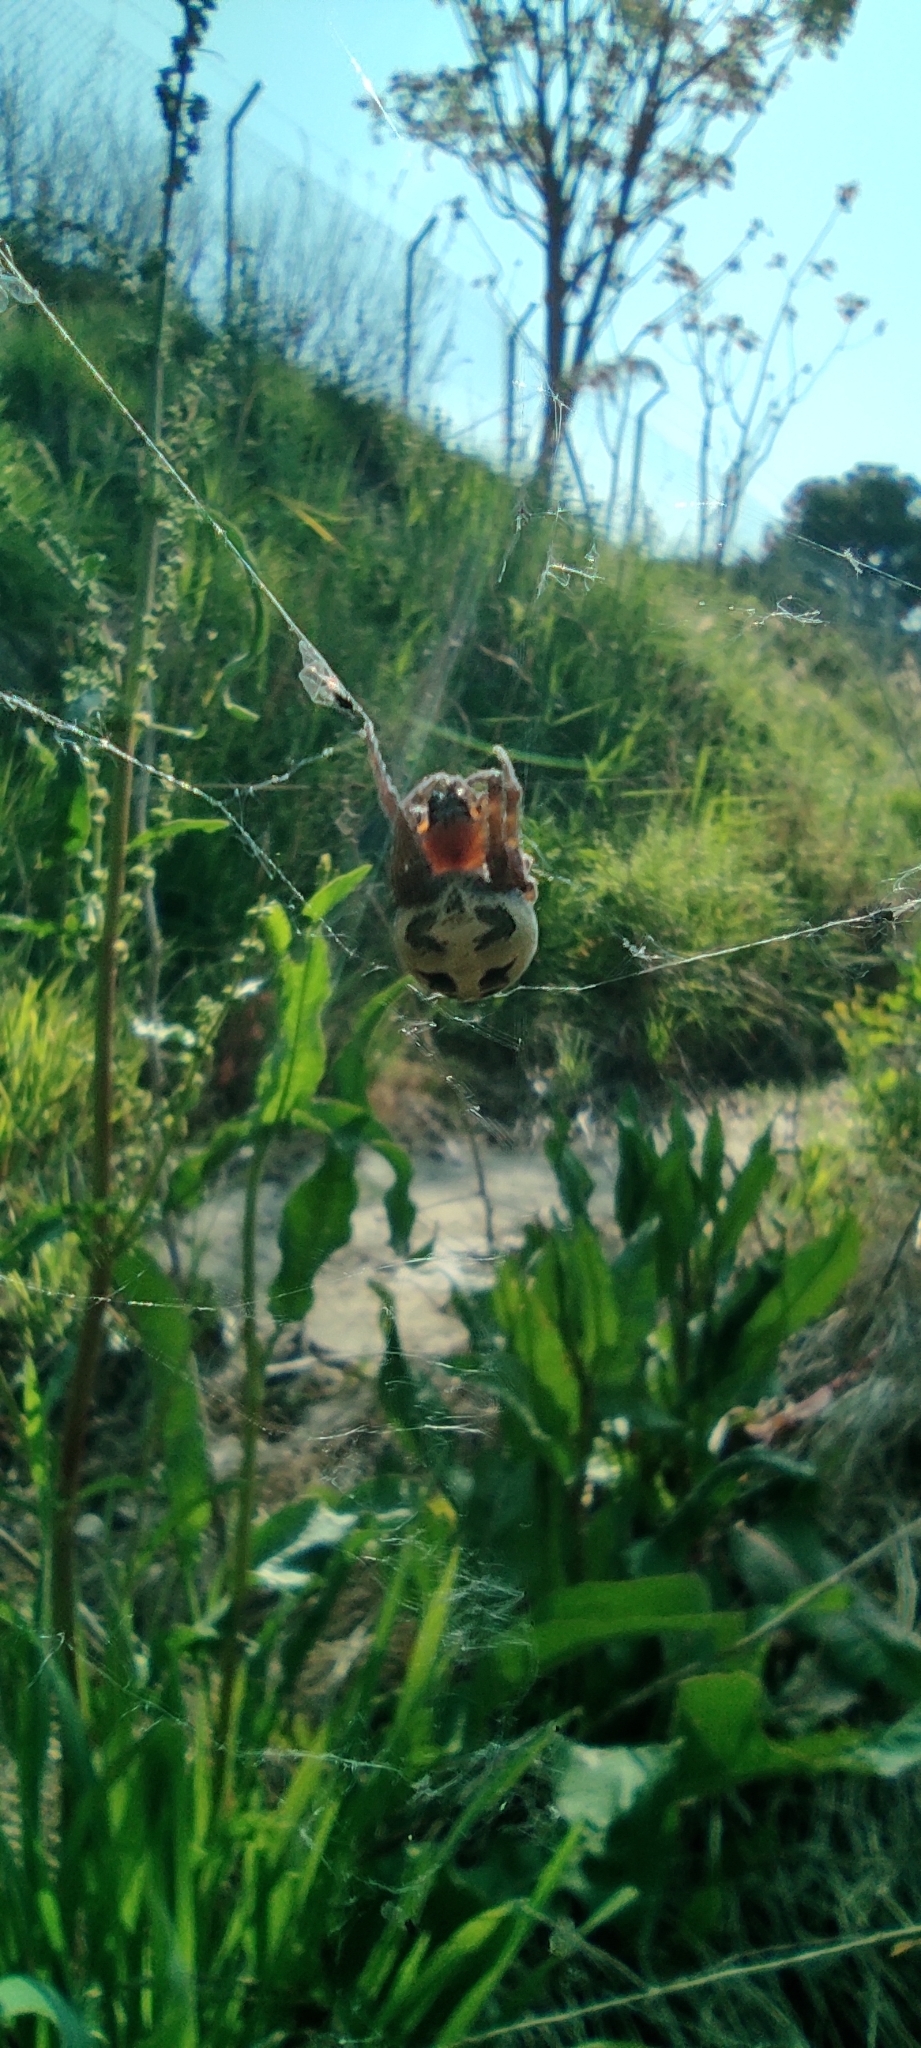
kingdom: Animalia
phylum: Arthropoda
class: Arachnida
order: Araneae
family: Araneidae
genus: Larinioides
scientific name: Larinioides
